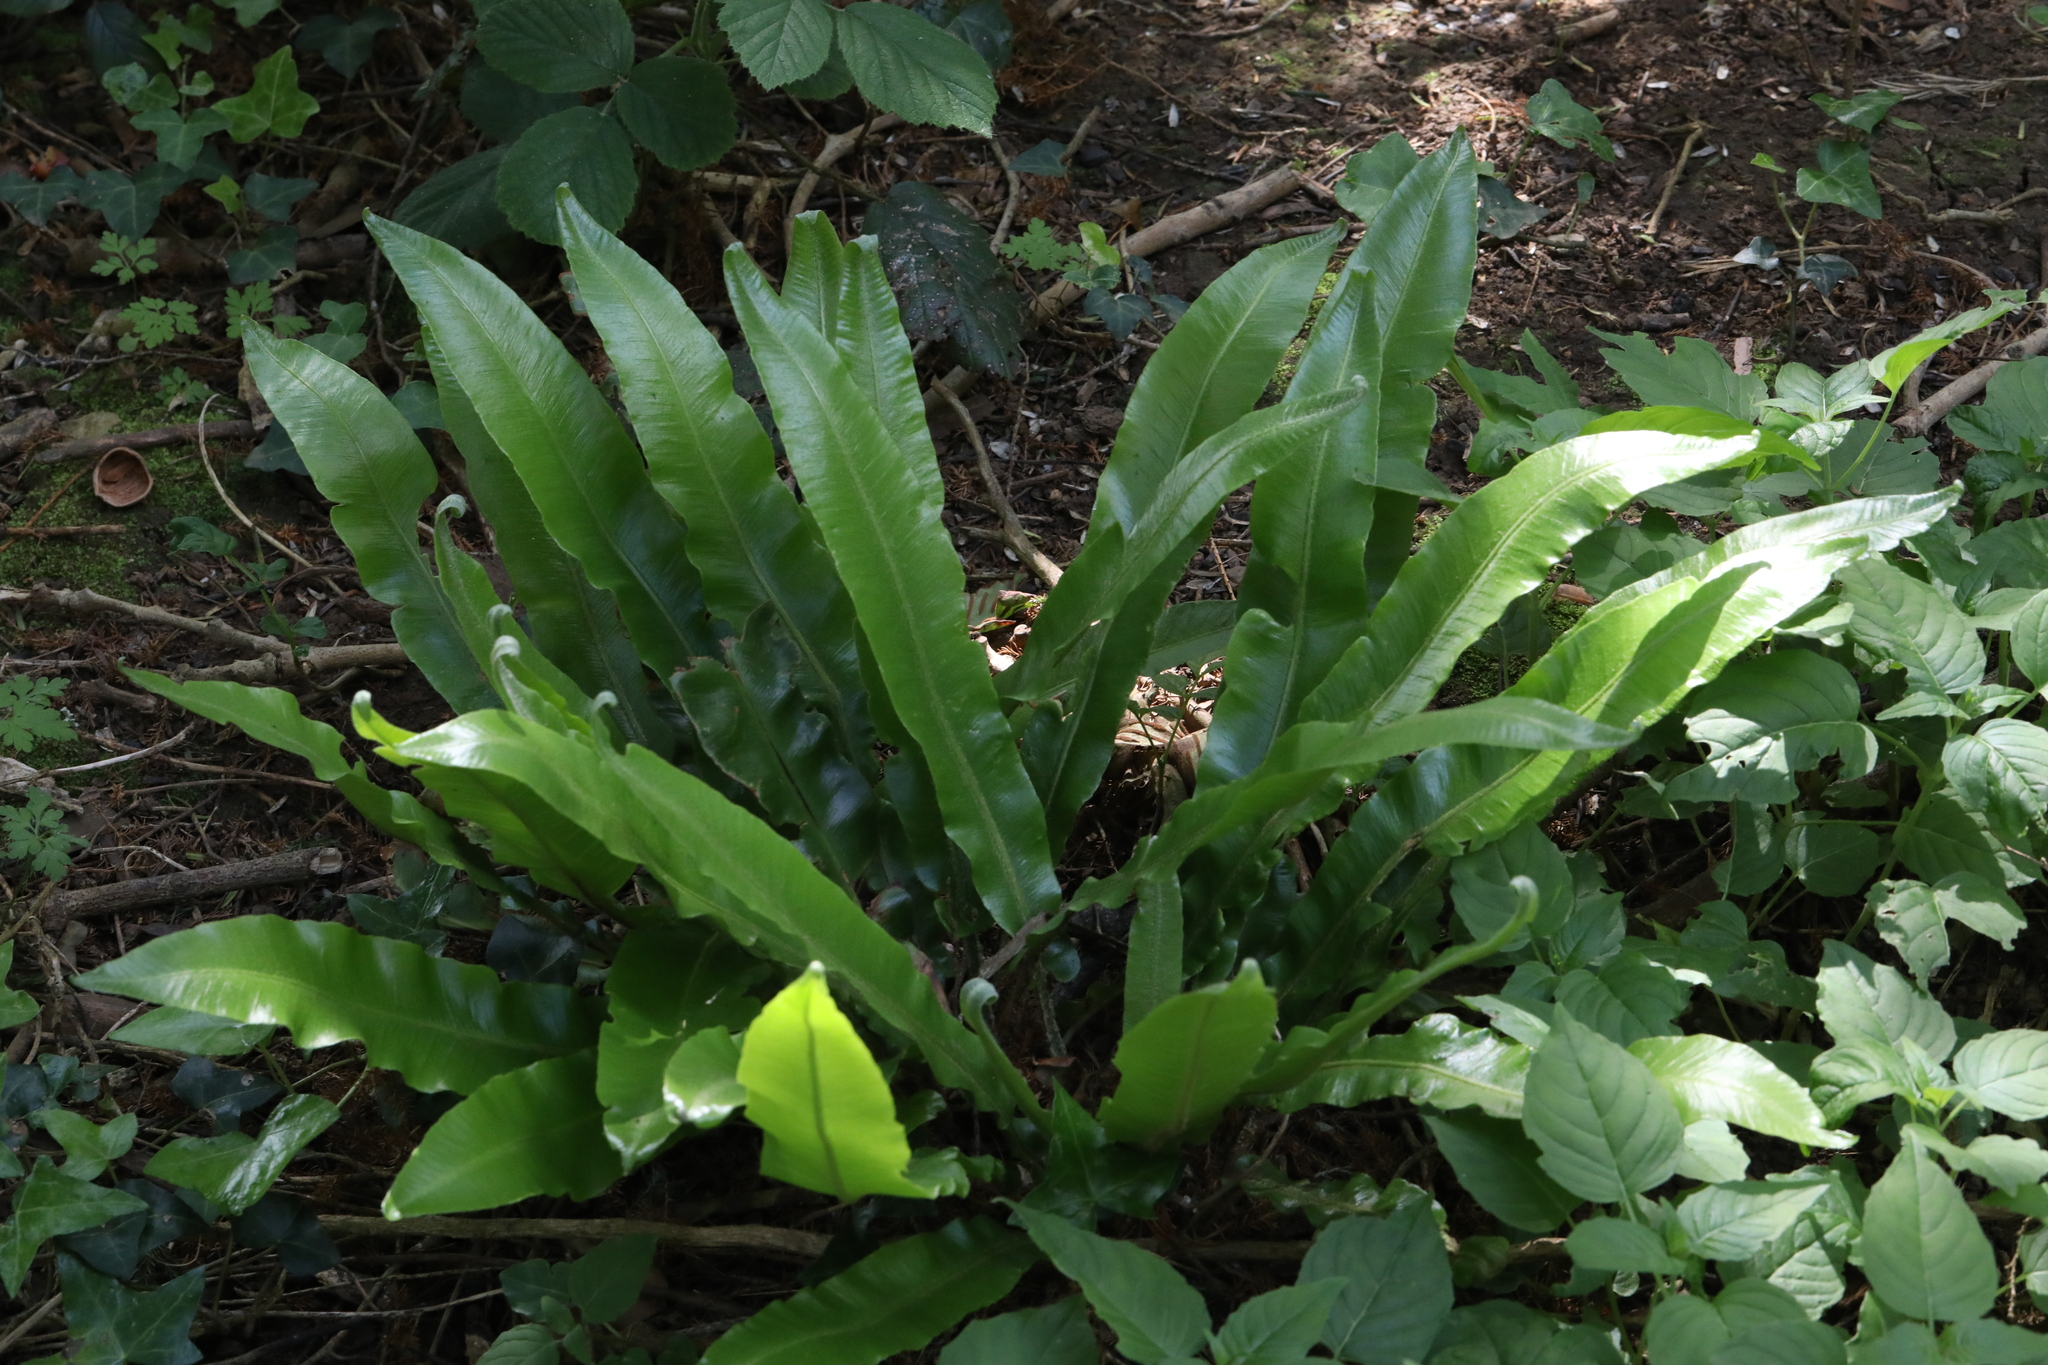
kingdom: Plantae
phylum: Tracheophyta
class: Polypodiopsida
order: Polypodiales
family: Aspleniaceae
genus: Asplenium
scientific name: Asplenium scolopendrium
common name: Hart's-tongue fern
